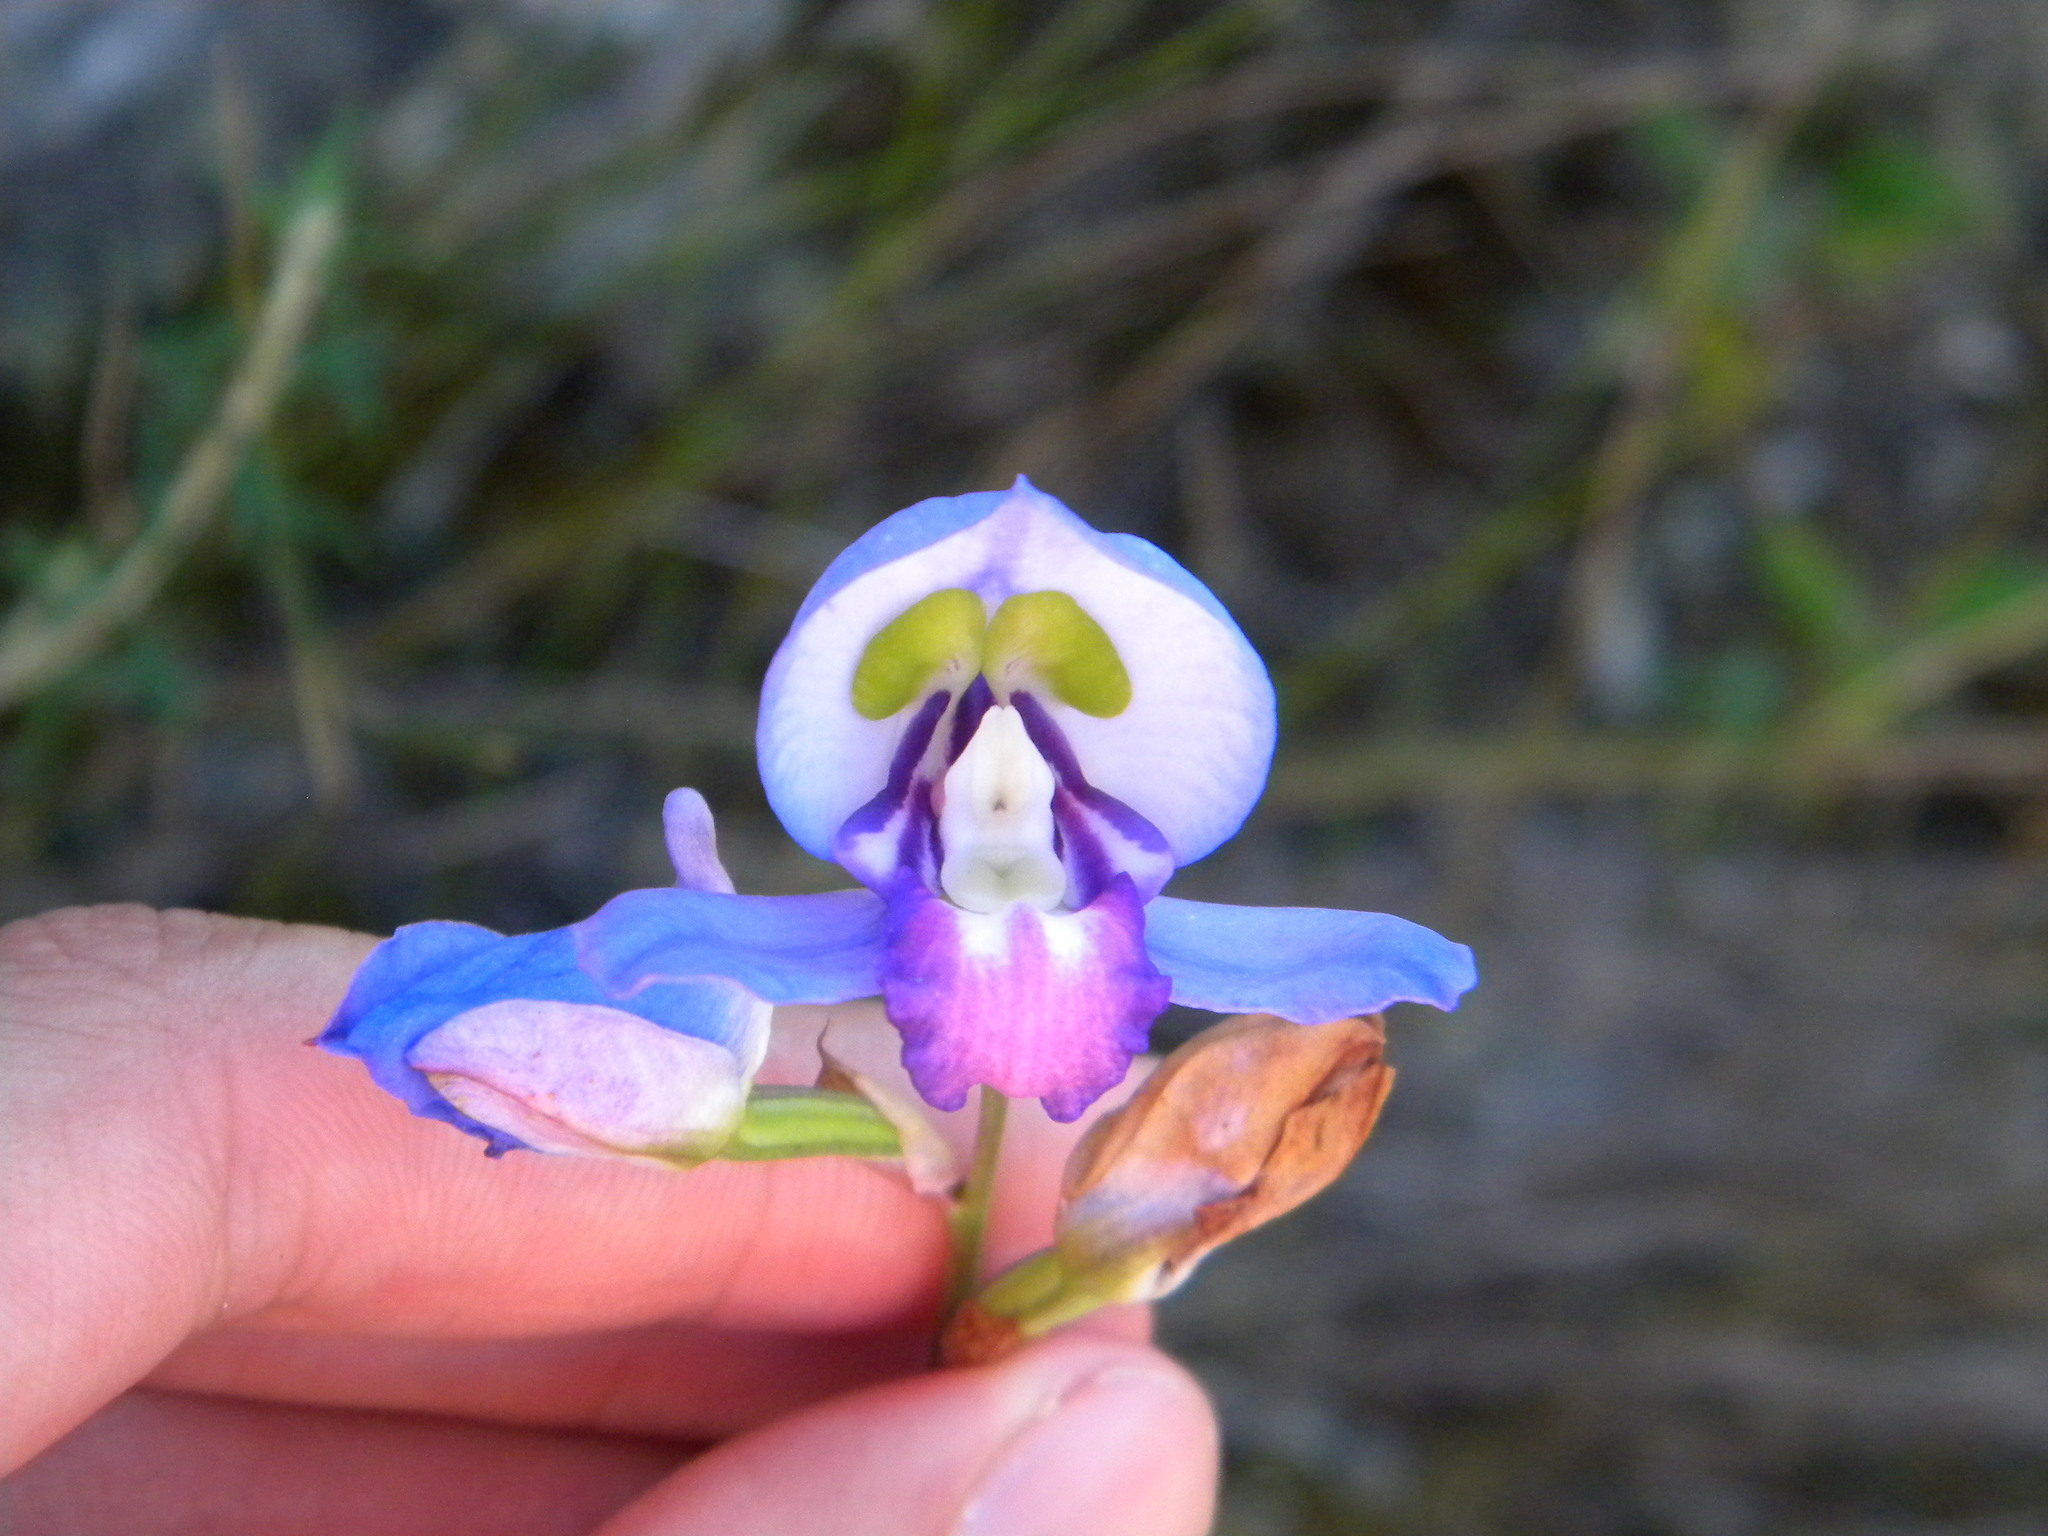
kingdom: Plantae
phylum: Tracheophyta
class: Liliopsida
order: Asparagales
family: Orchidaceae
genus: Disa
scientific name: Disa graminifolia
